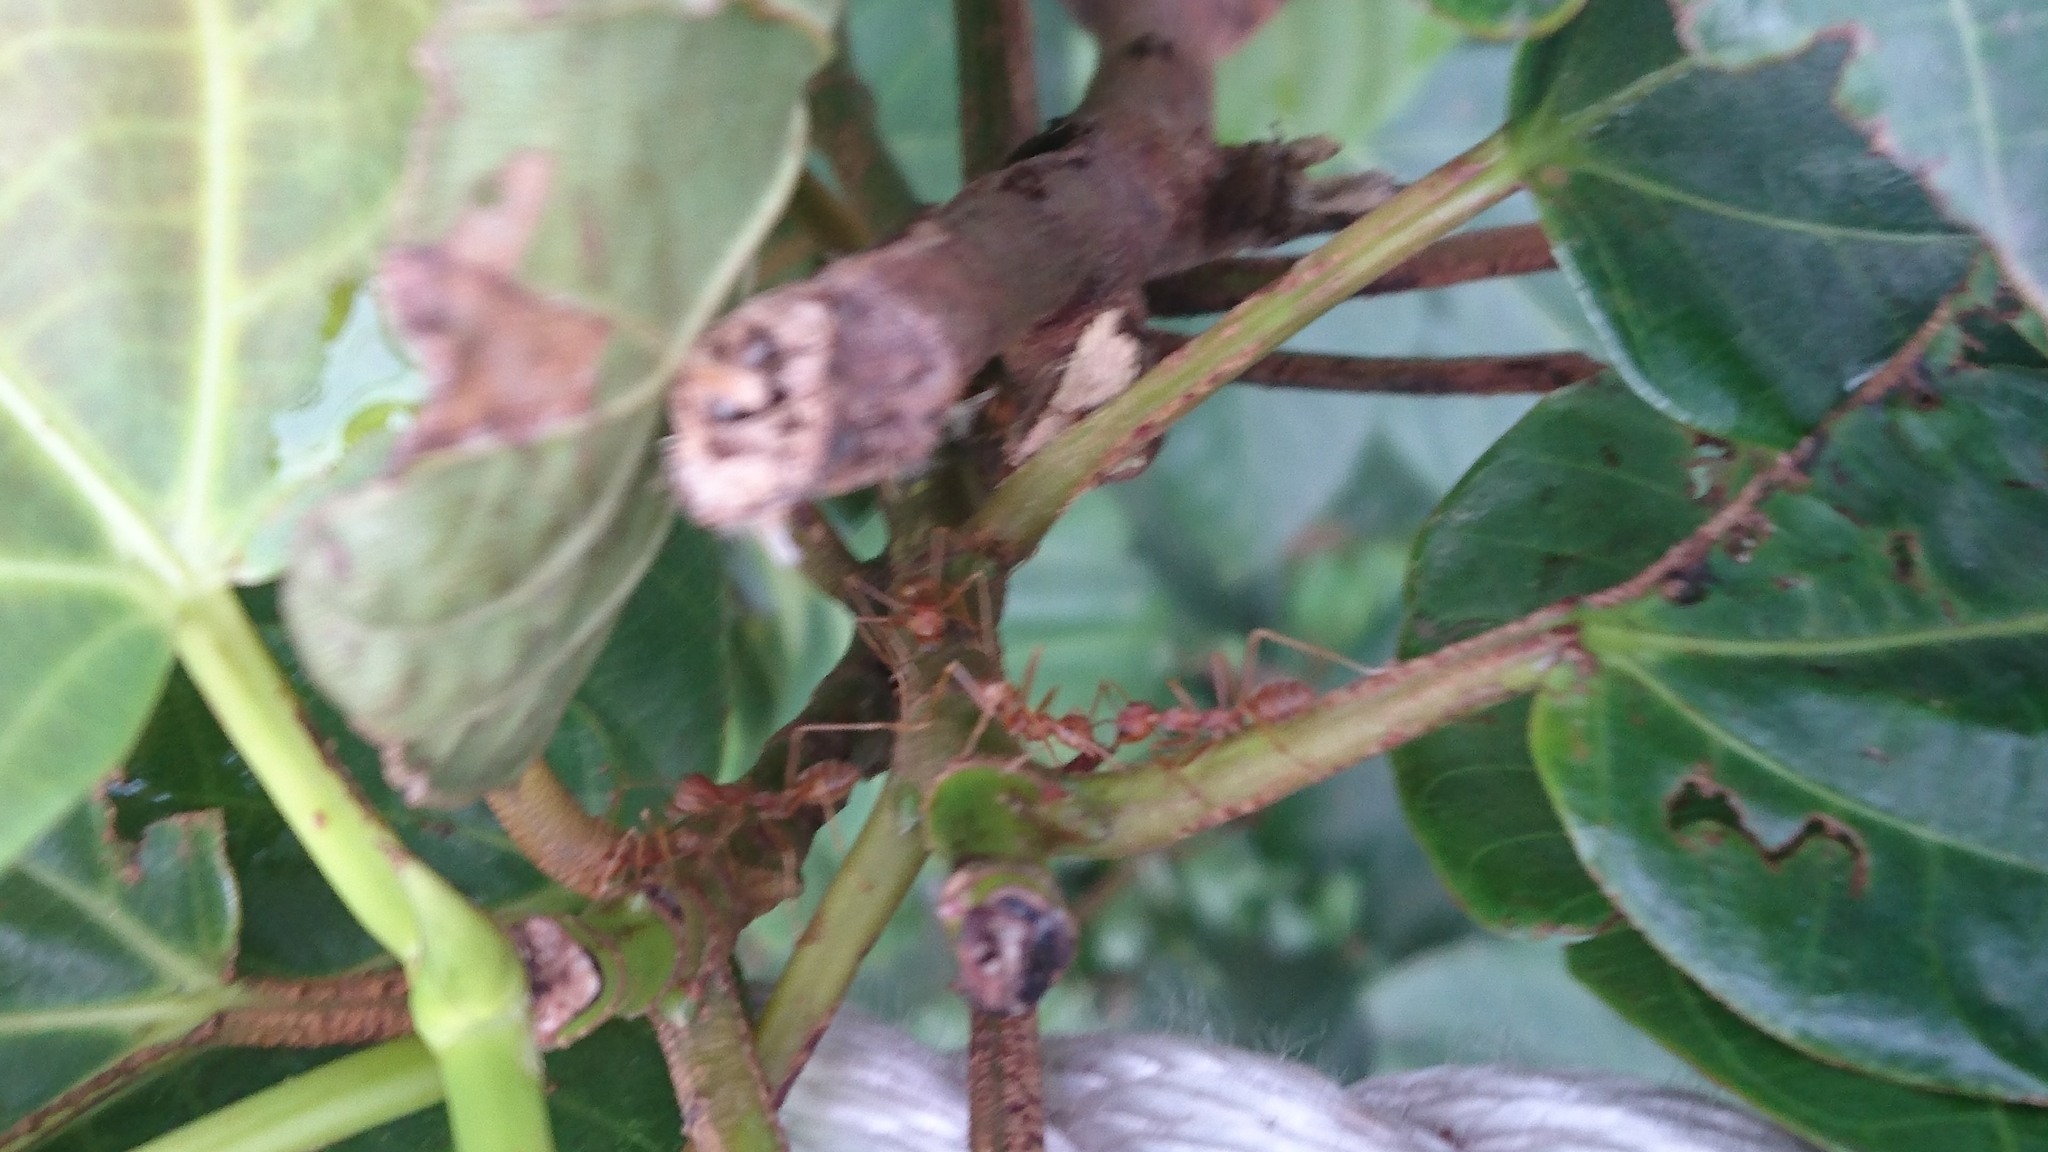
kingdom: Animalia
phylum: Arthropoda
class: Insecta
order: Hymenoptera
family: Formicidae
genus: Oecophylla
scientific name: Oecophylla smaragdina
